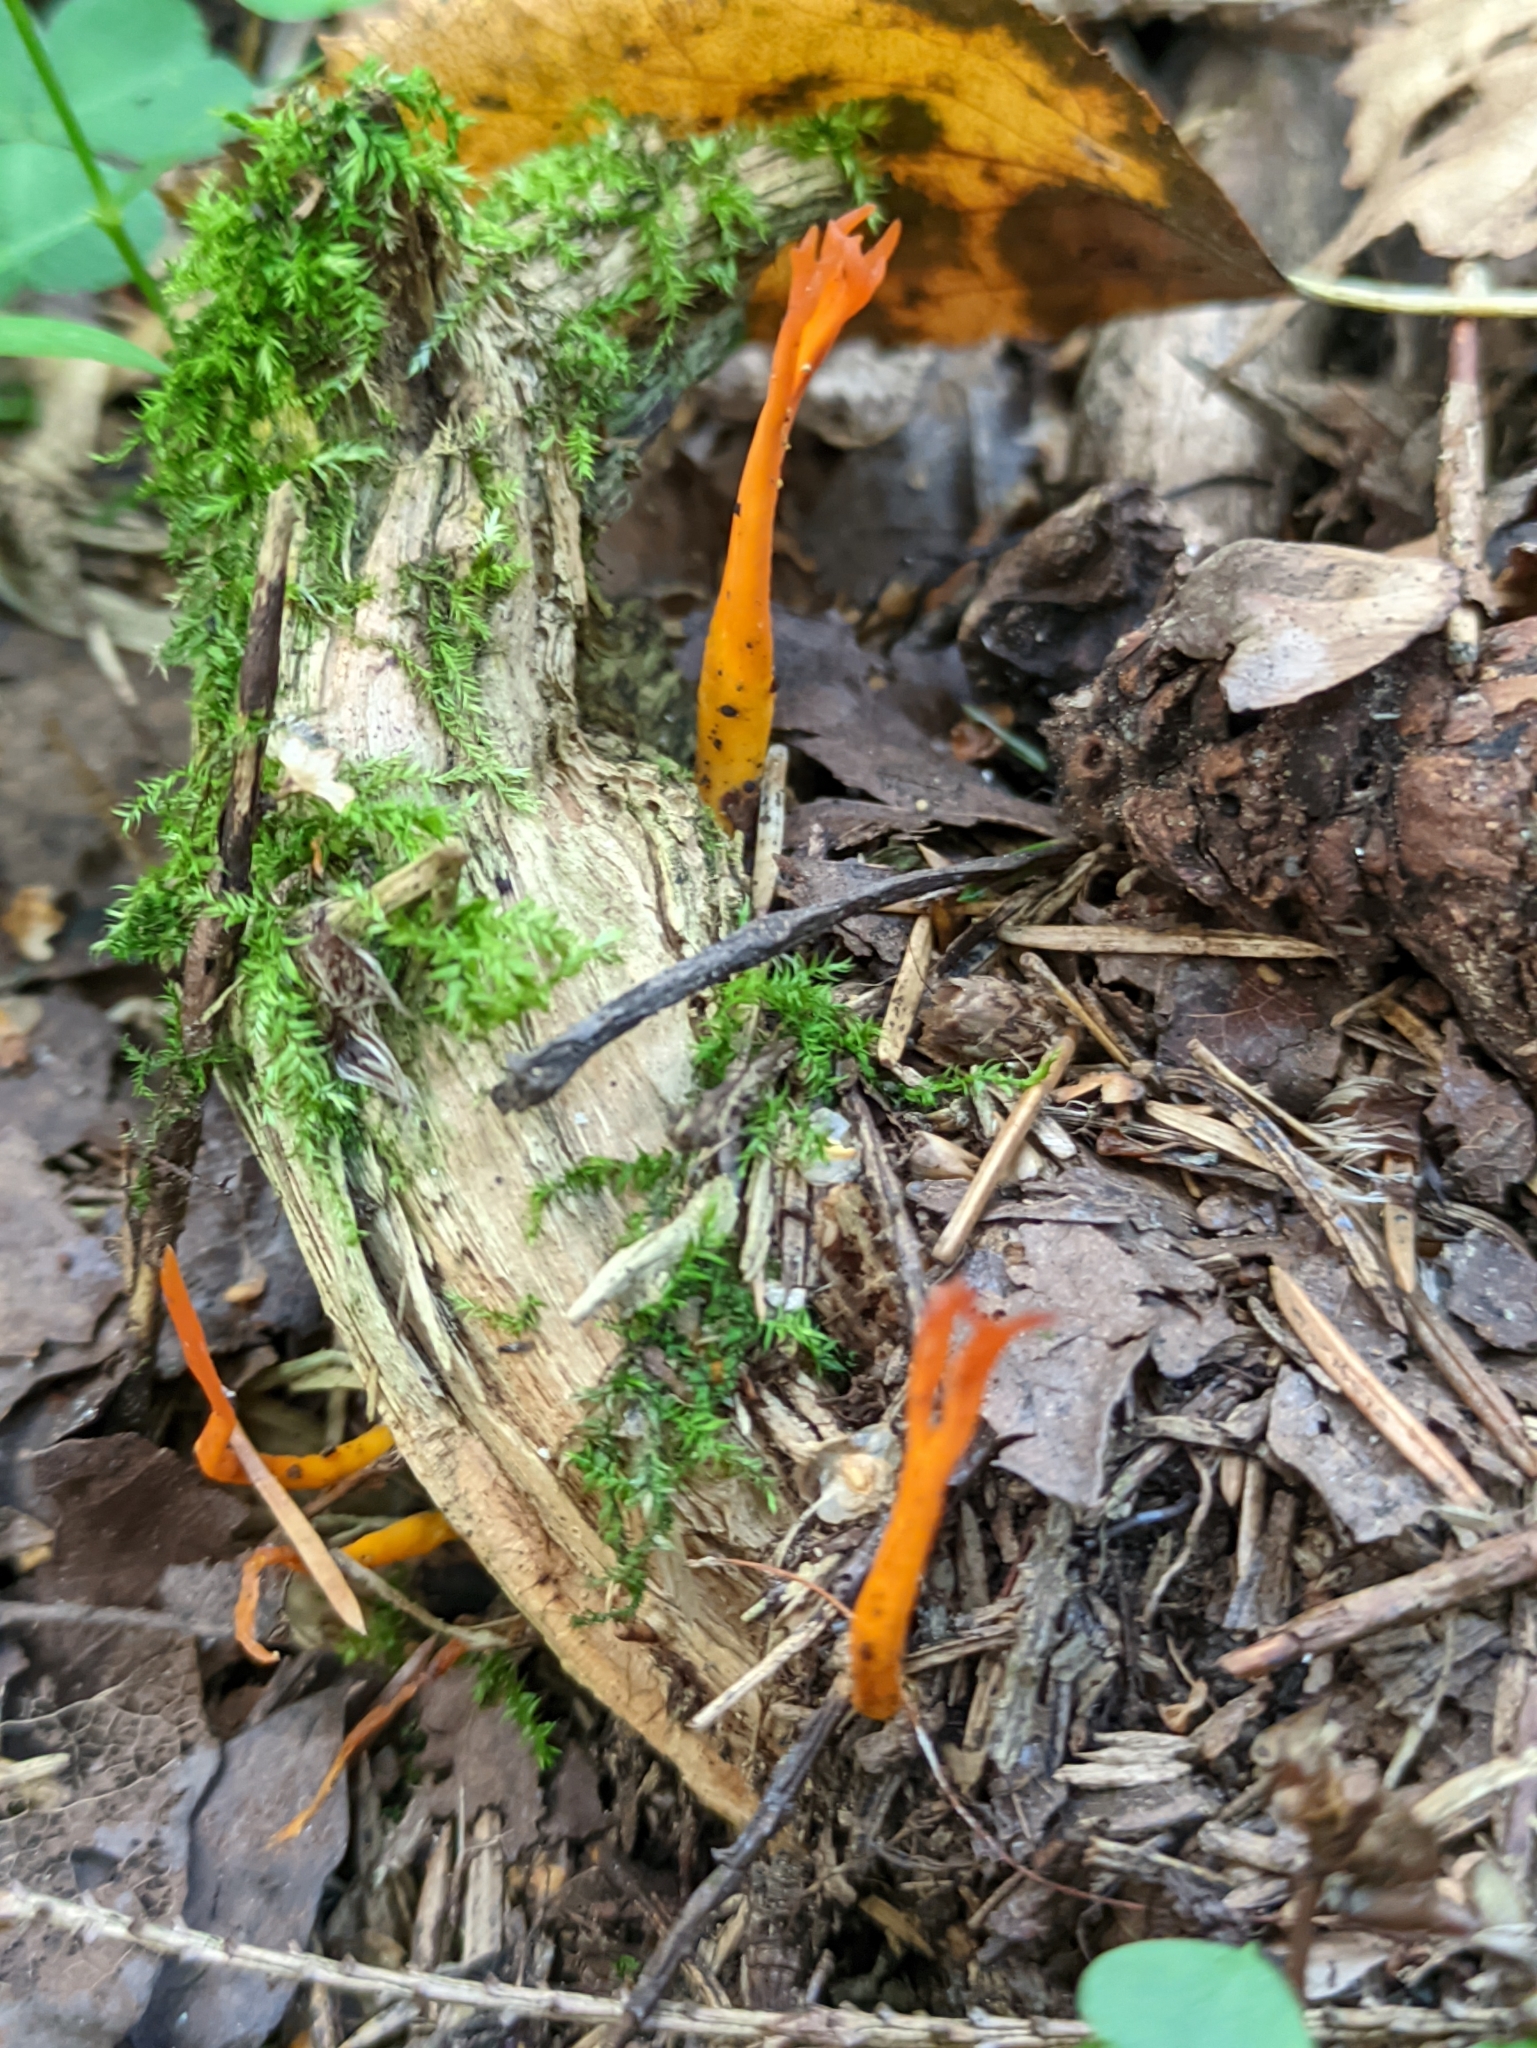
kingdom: Fungi
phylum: Basidiomycota
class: Dacrymycetes
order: Dacrymycetales
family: Dacrymycetaceae
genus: Calocera
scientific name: Calocera viscosa
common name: Yellow stagshorn
